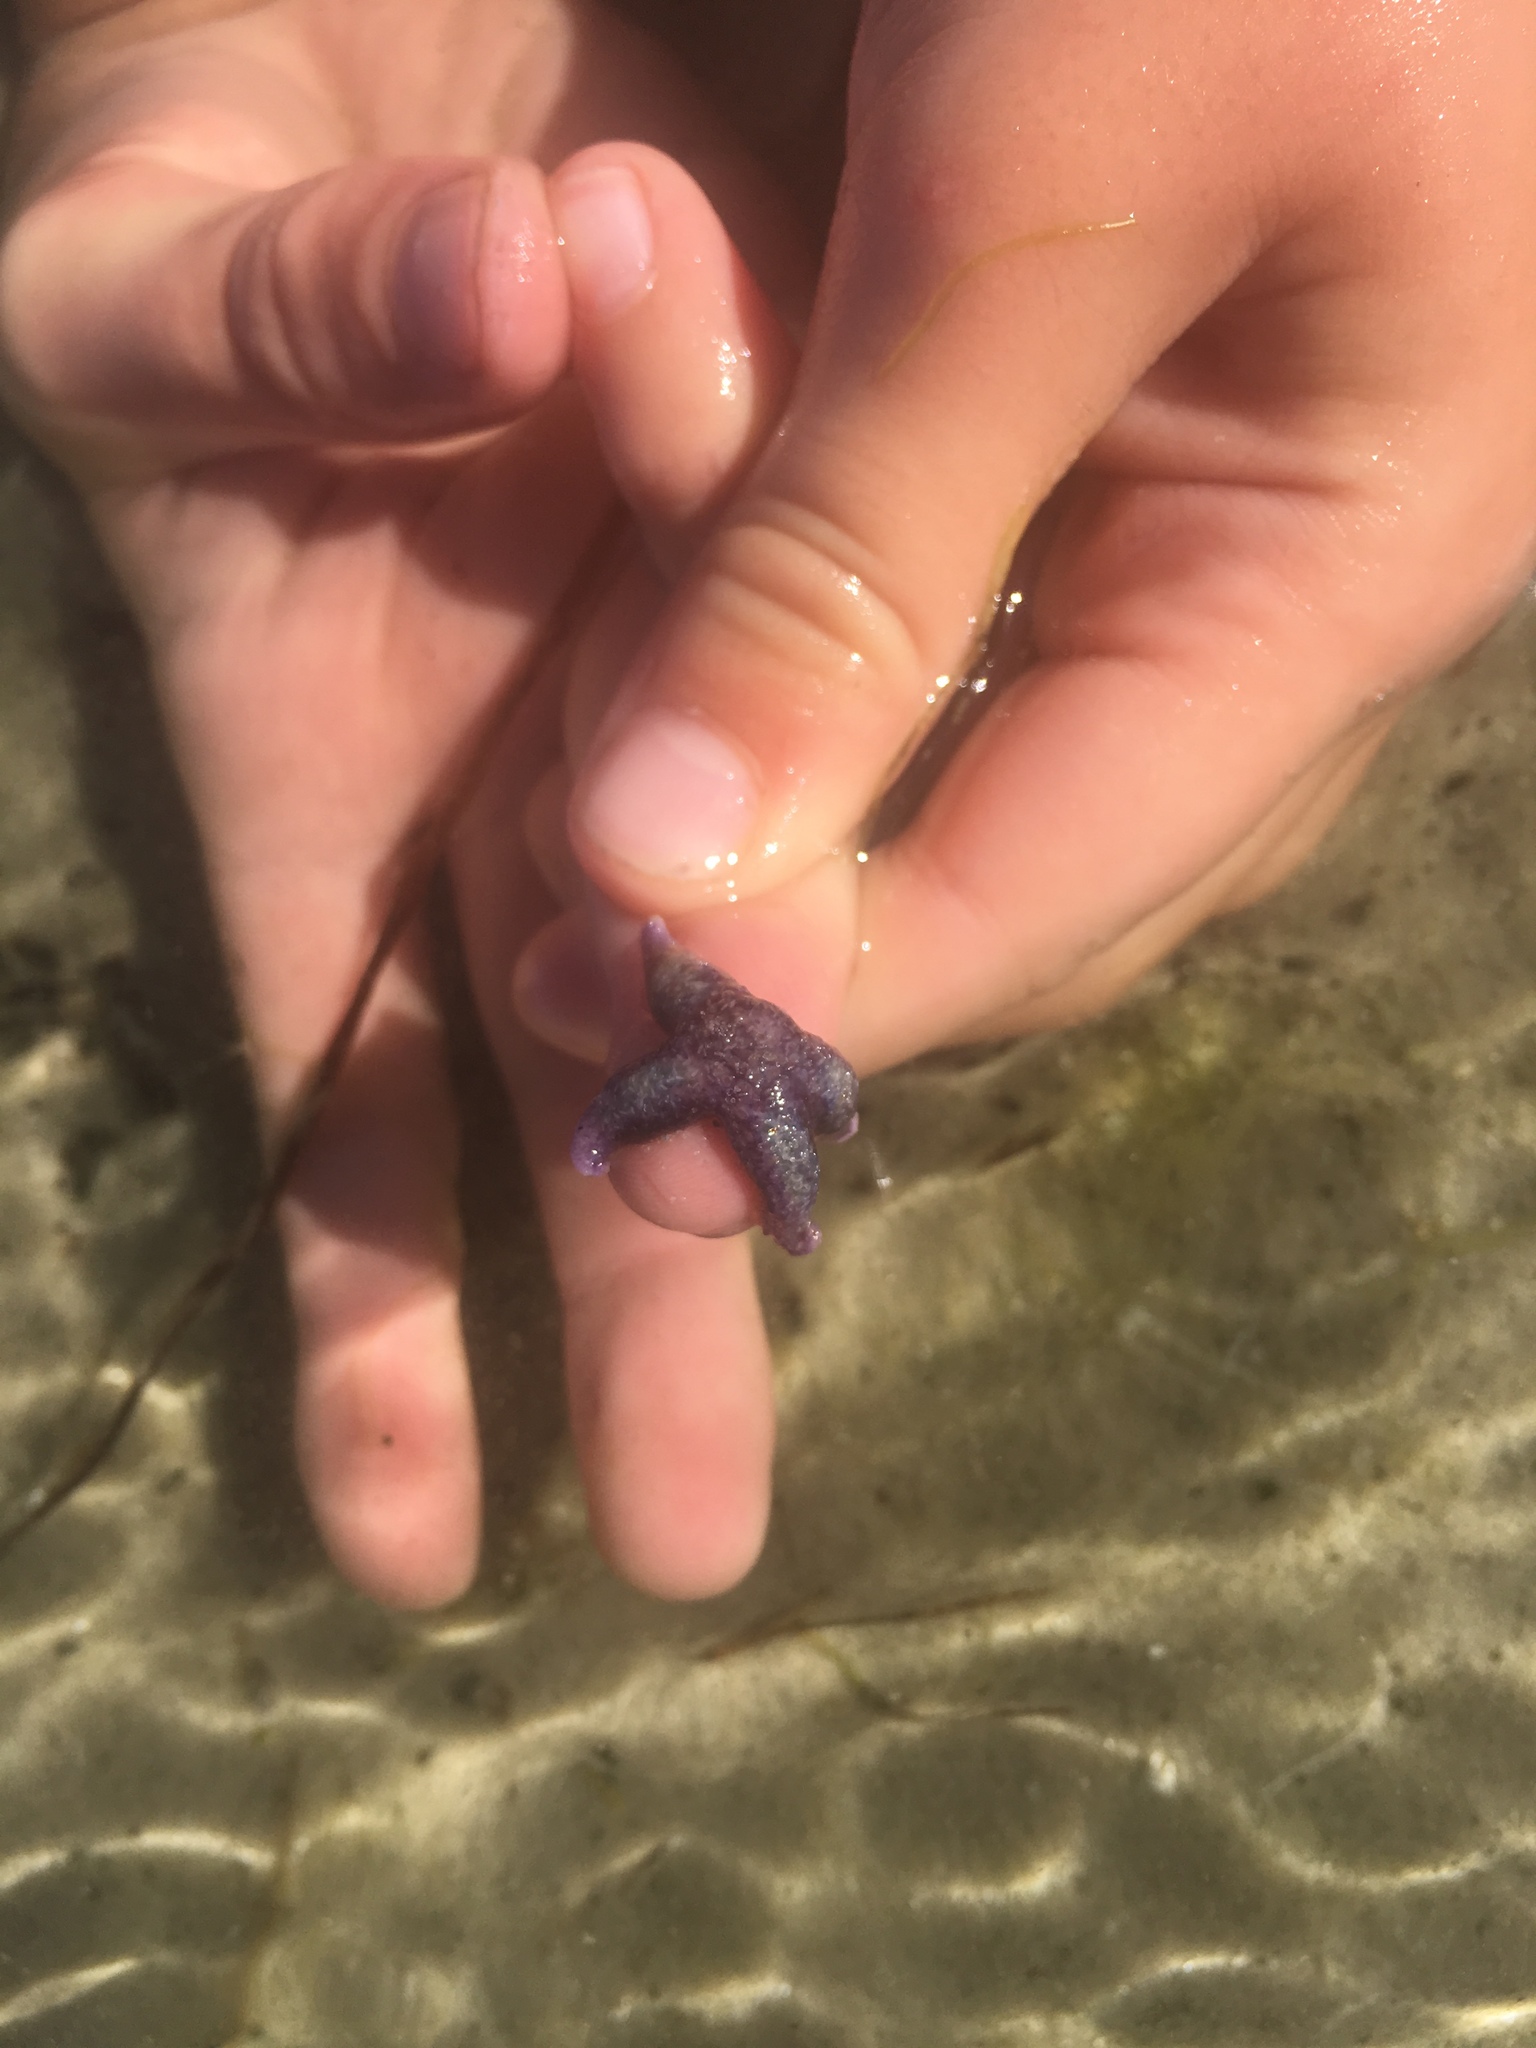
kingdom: Animalia
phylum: Echinodermata
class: Asteroidea
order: Forcipulatida
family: Asteriidae
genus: Asterias
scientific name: Asterias rubens
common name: Common starfish
